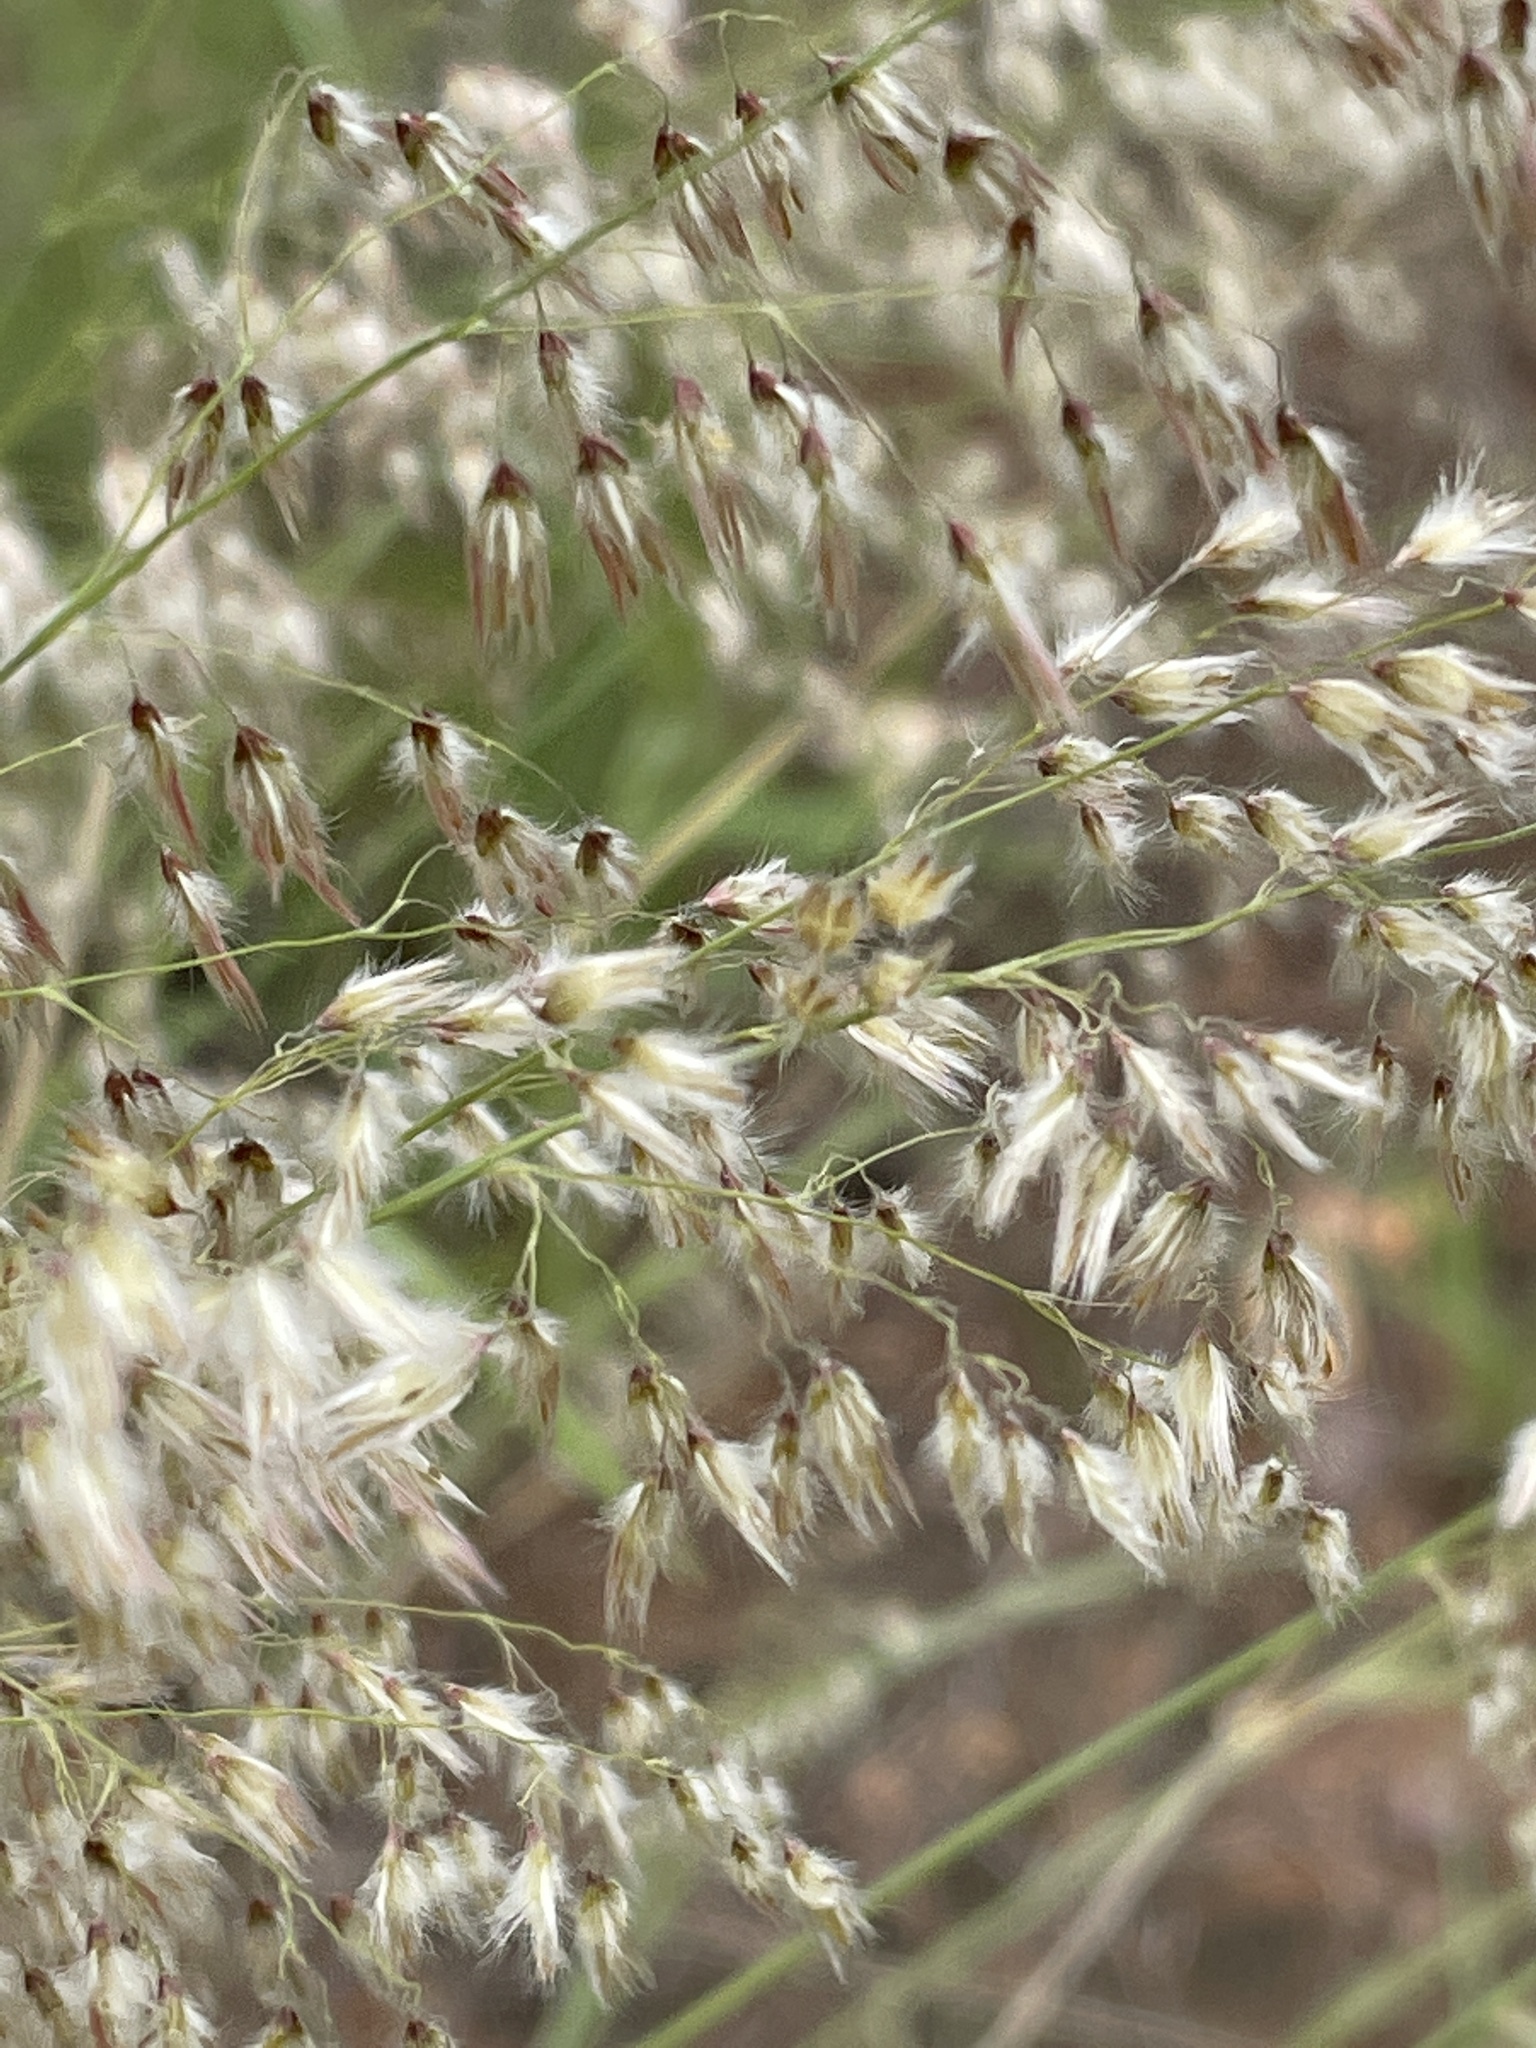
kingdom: Plantae
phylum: Tracheophyta
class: Liliopsida
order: Poales
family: Poaceae
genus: Melinis
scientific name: Melinis repens
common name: Rose natal grass
